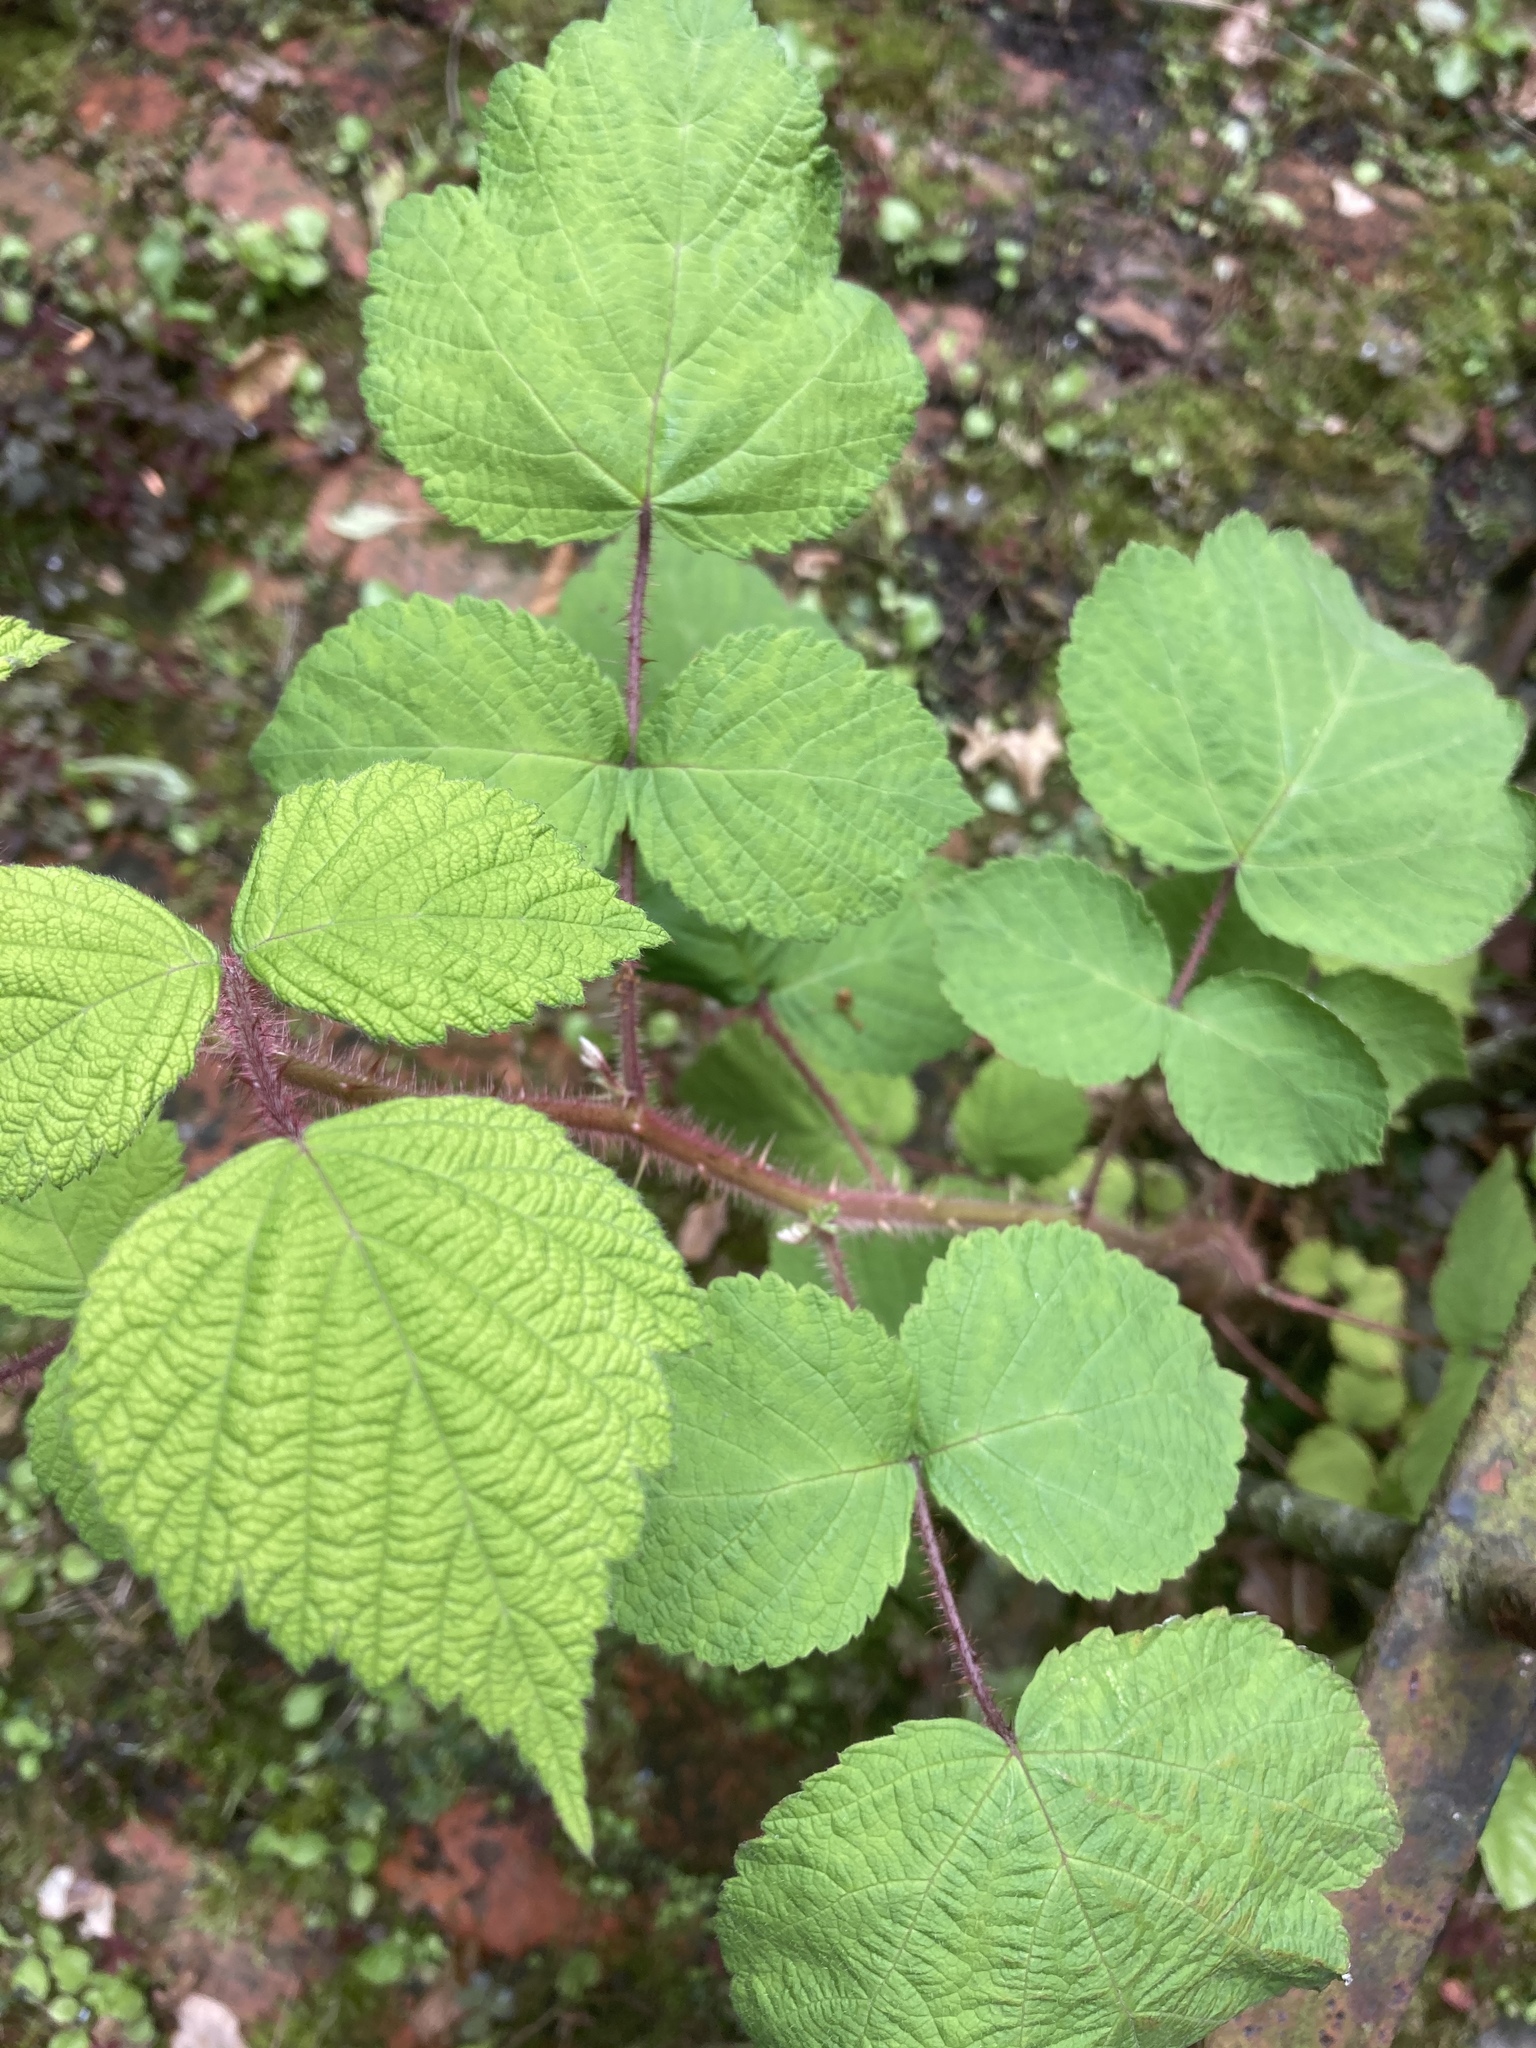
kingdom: Plantae
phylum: Tracheophyta
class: Magnoliopsida
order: Rosales
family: Rosaceae
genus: Rubus
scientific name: Rubus phoenicolasius
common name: Japanese wineberry
